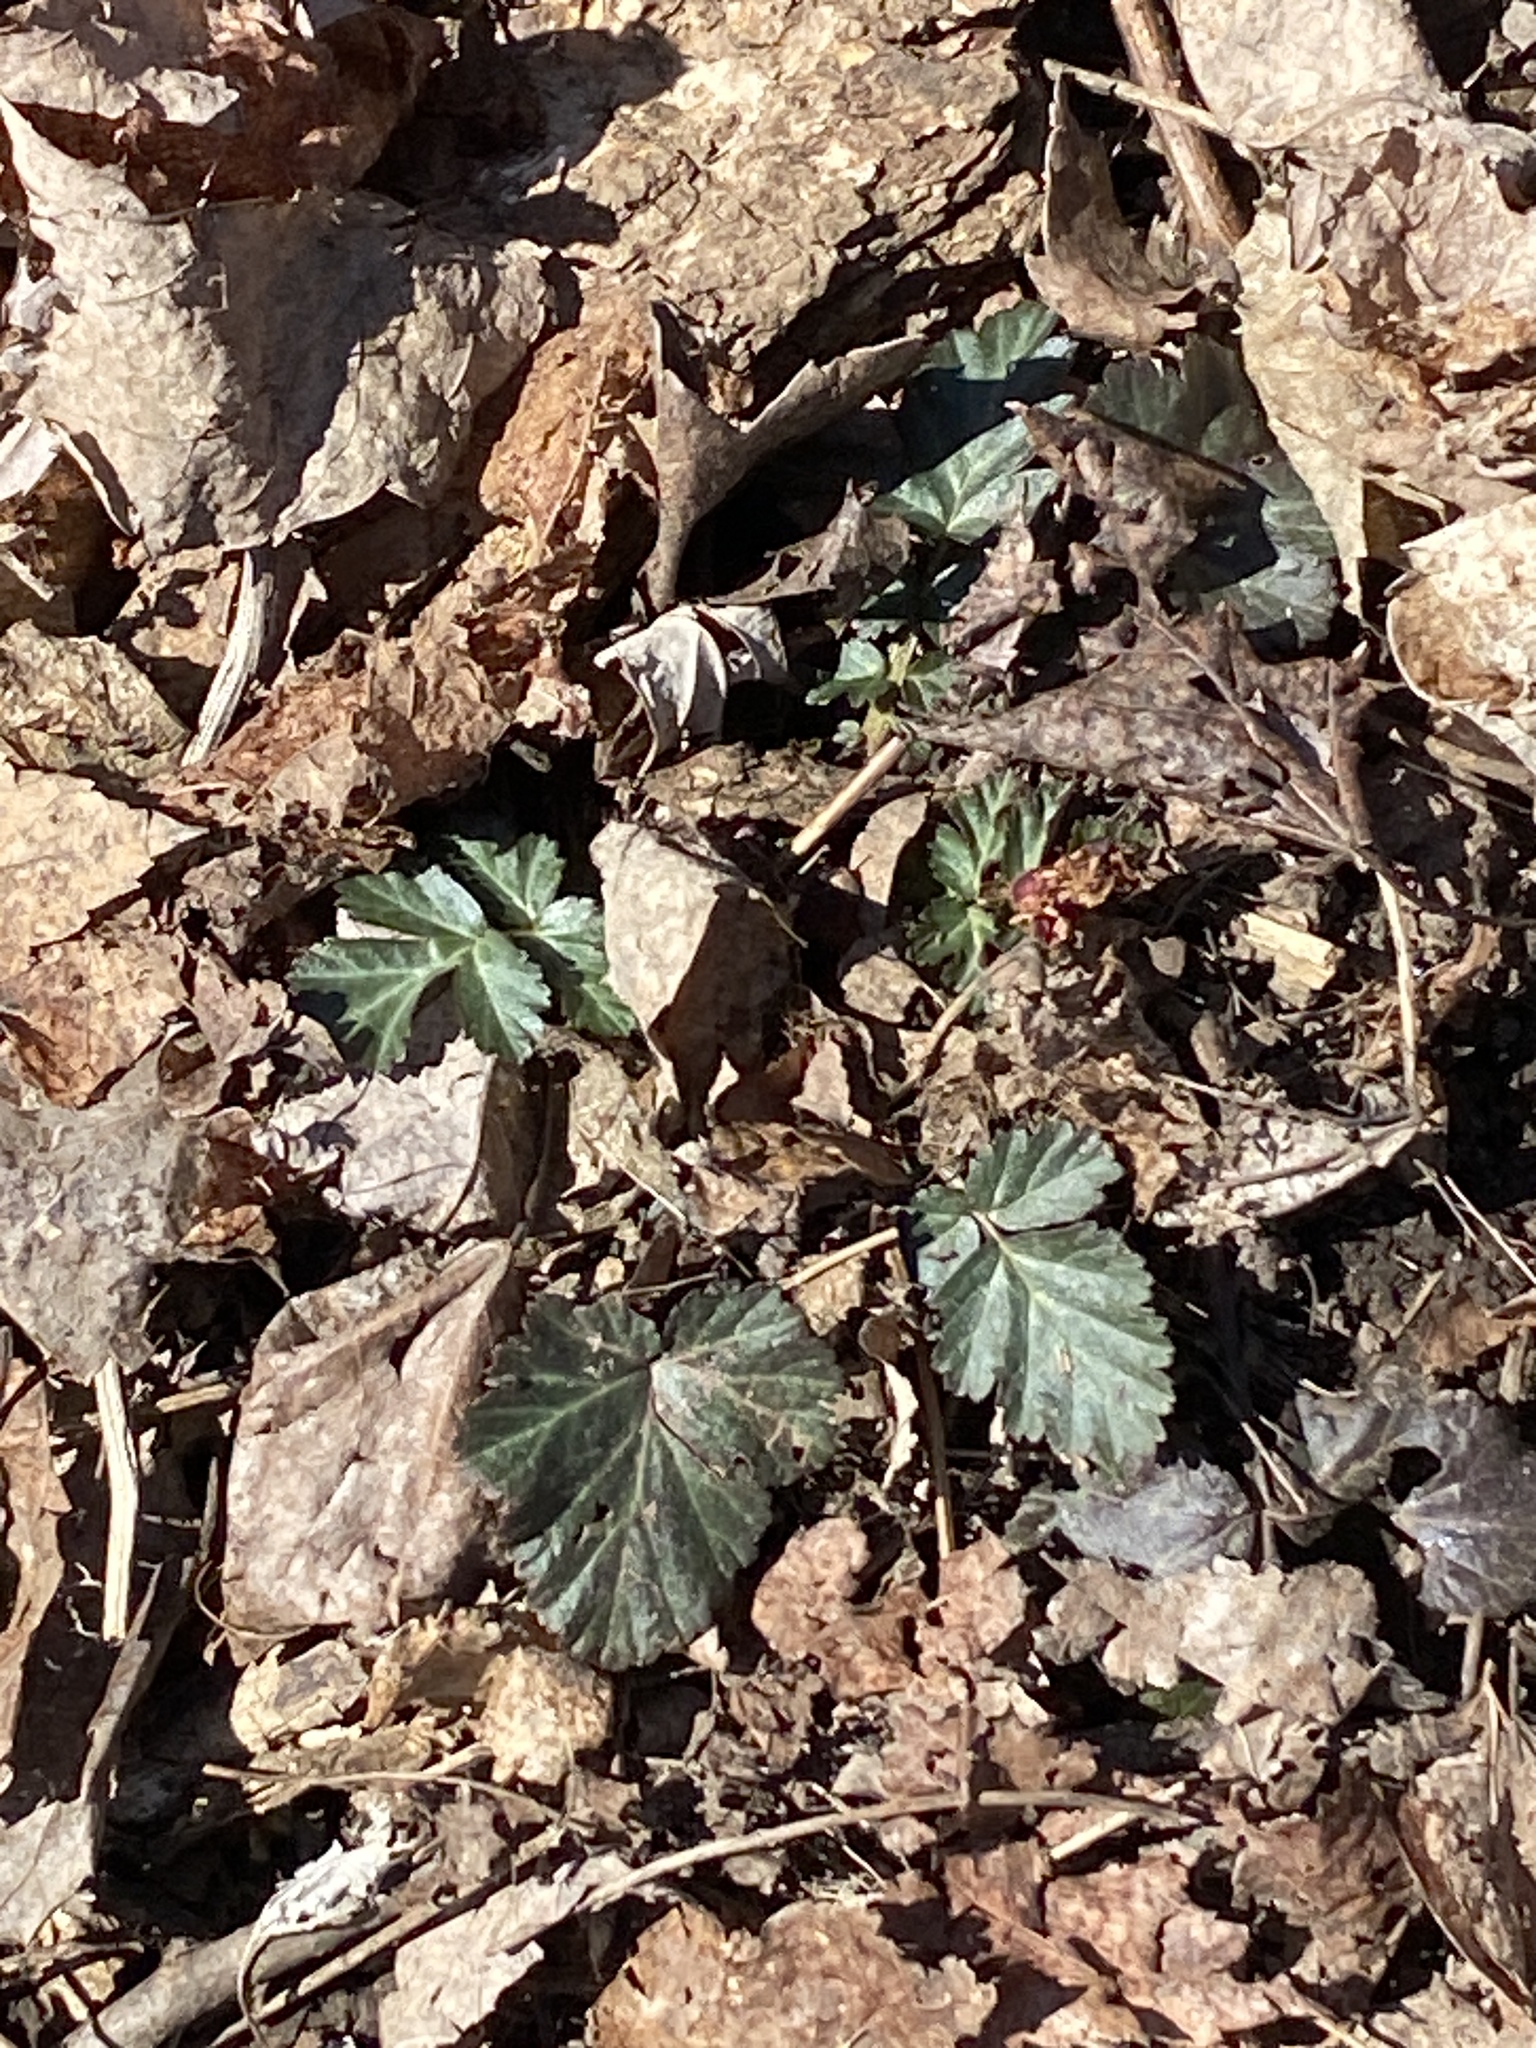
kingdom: Plantae
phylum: Tracheophyta
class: Magnoliopsida
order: Rosales
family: Rosaceae
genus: Geum
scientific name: Geum canadense
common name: White avens
